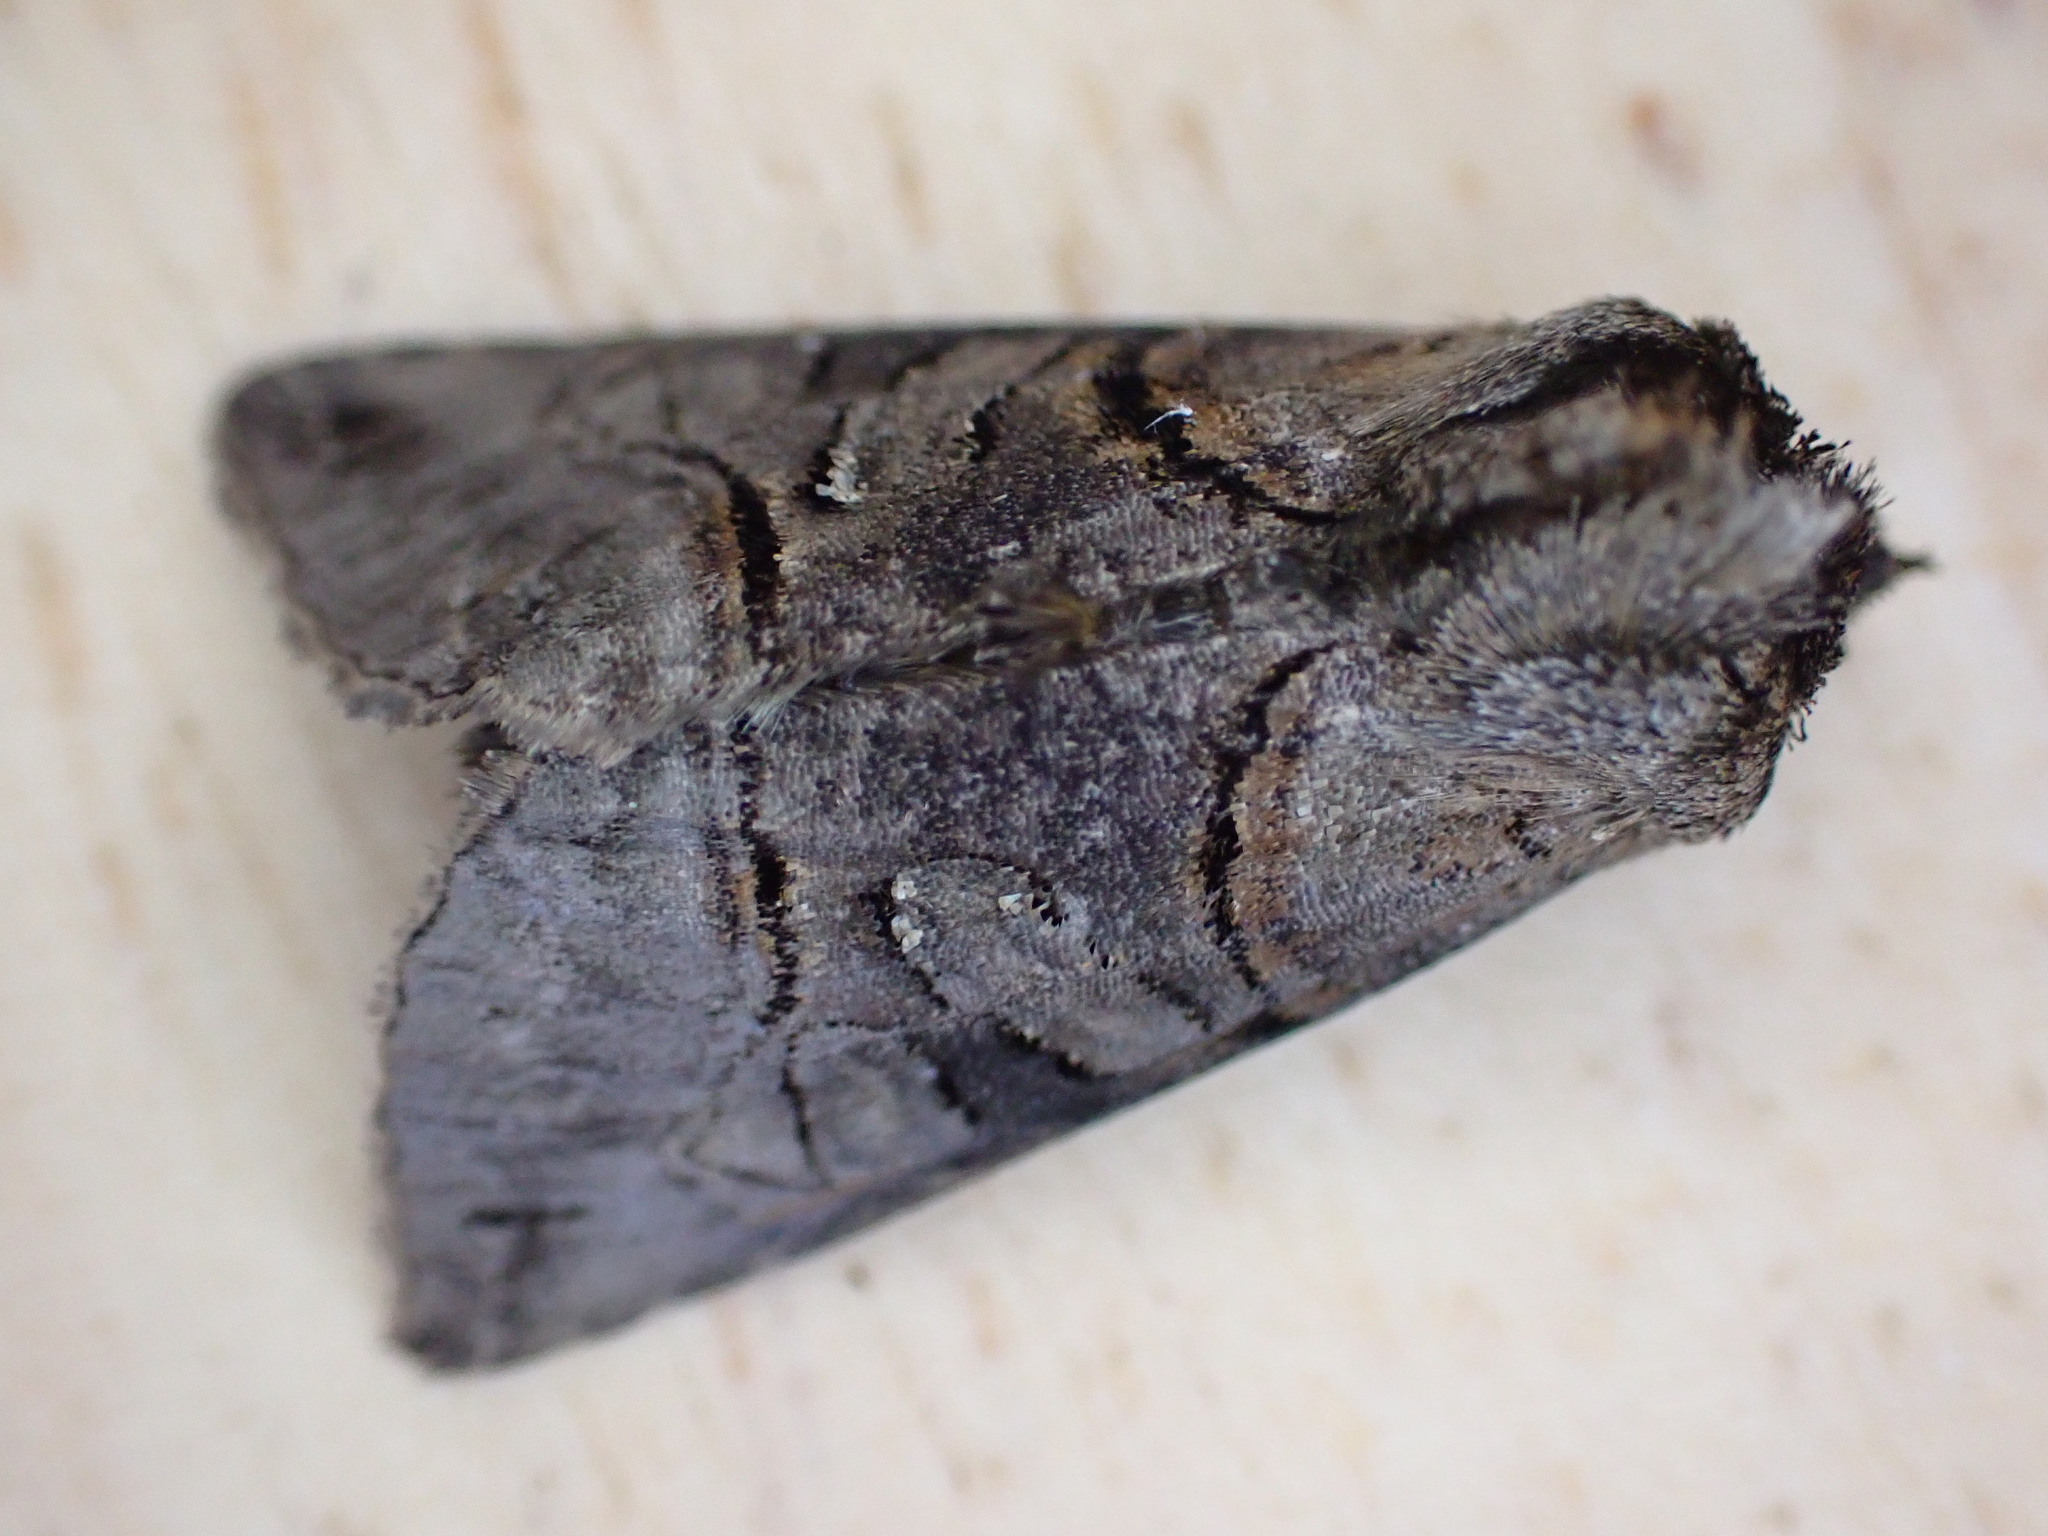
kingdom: Animalia
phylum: Arthropoda
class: Insecta
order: Lepidoptera
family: Noctuidae
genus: Abrostola
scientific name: Abrostola tripartita
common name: Spectacle
